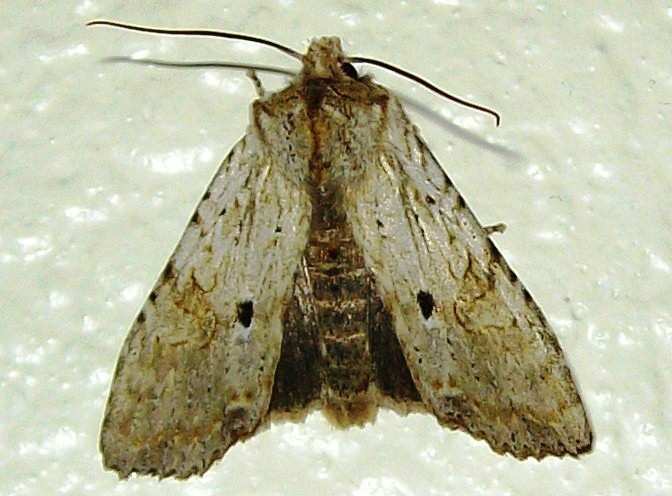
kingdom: Animalia
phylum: Arthropoda
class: Insecta
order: Lepidoptera
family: Noctuidae
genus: Lithophane
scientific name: Lithophane patefacta
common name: Dimorphic pinion moth
